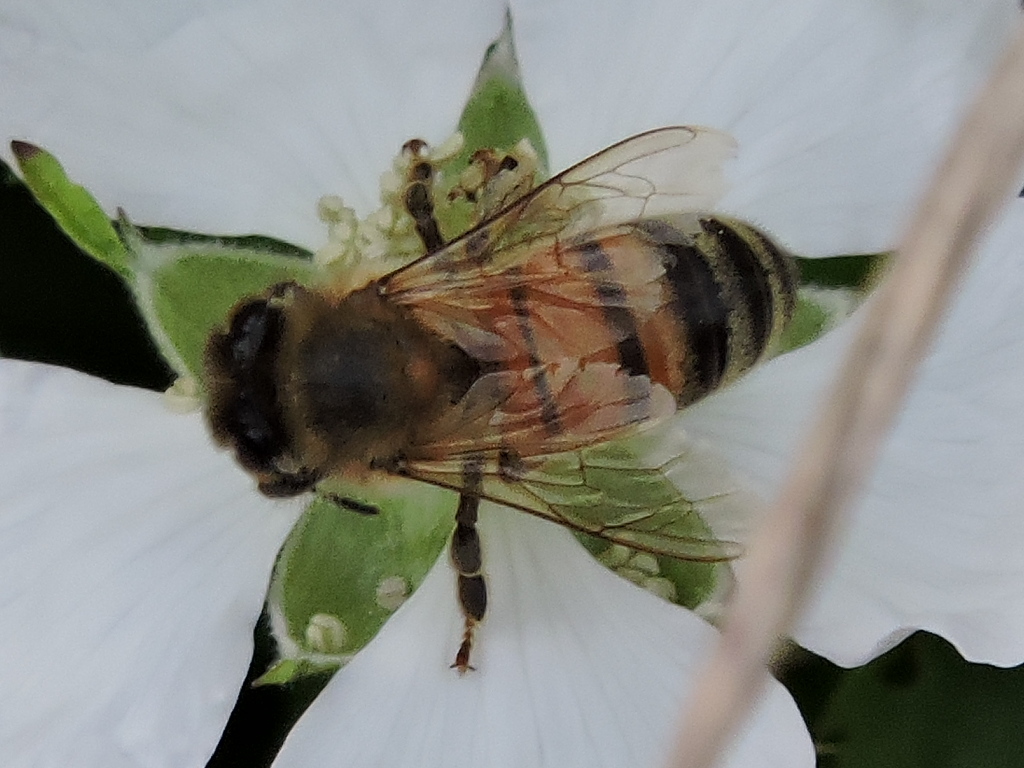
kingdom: Animalia
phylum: Arthropoda
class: Insecta
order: Hymenoptera
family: Apidae
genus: Apis
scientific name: Apis mellifera
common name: Honey bee
